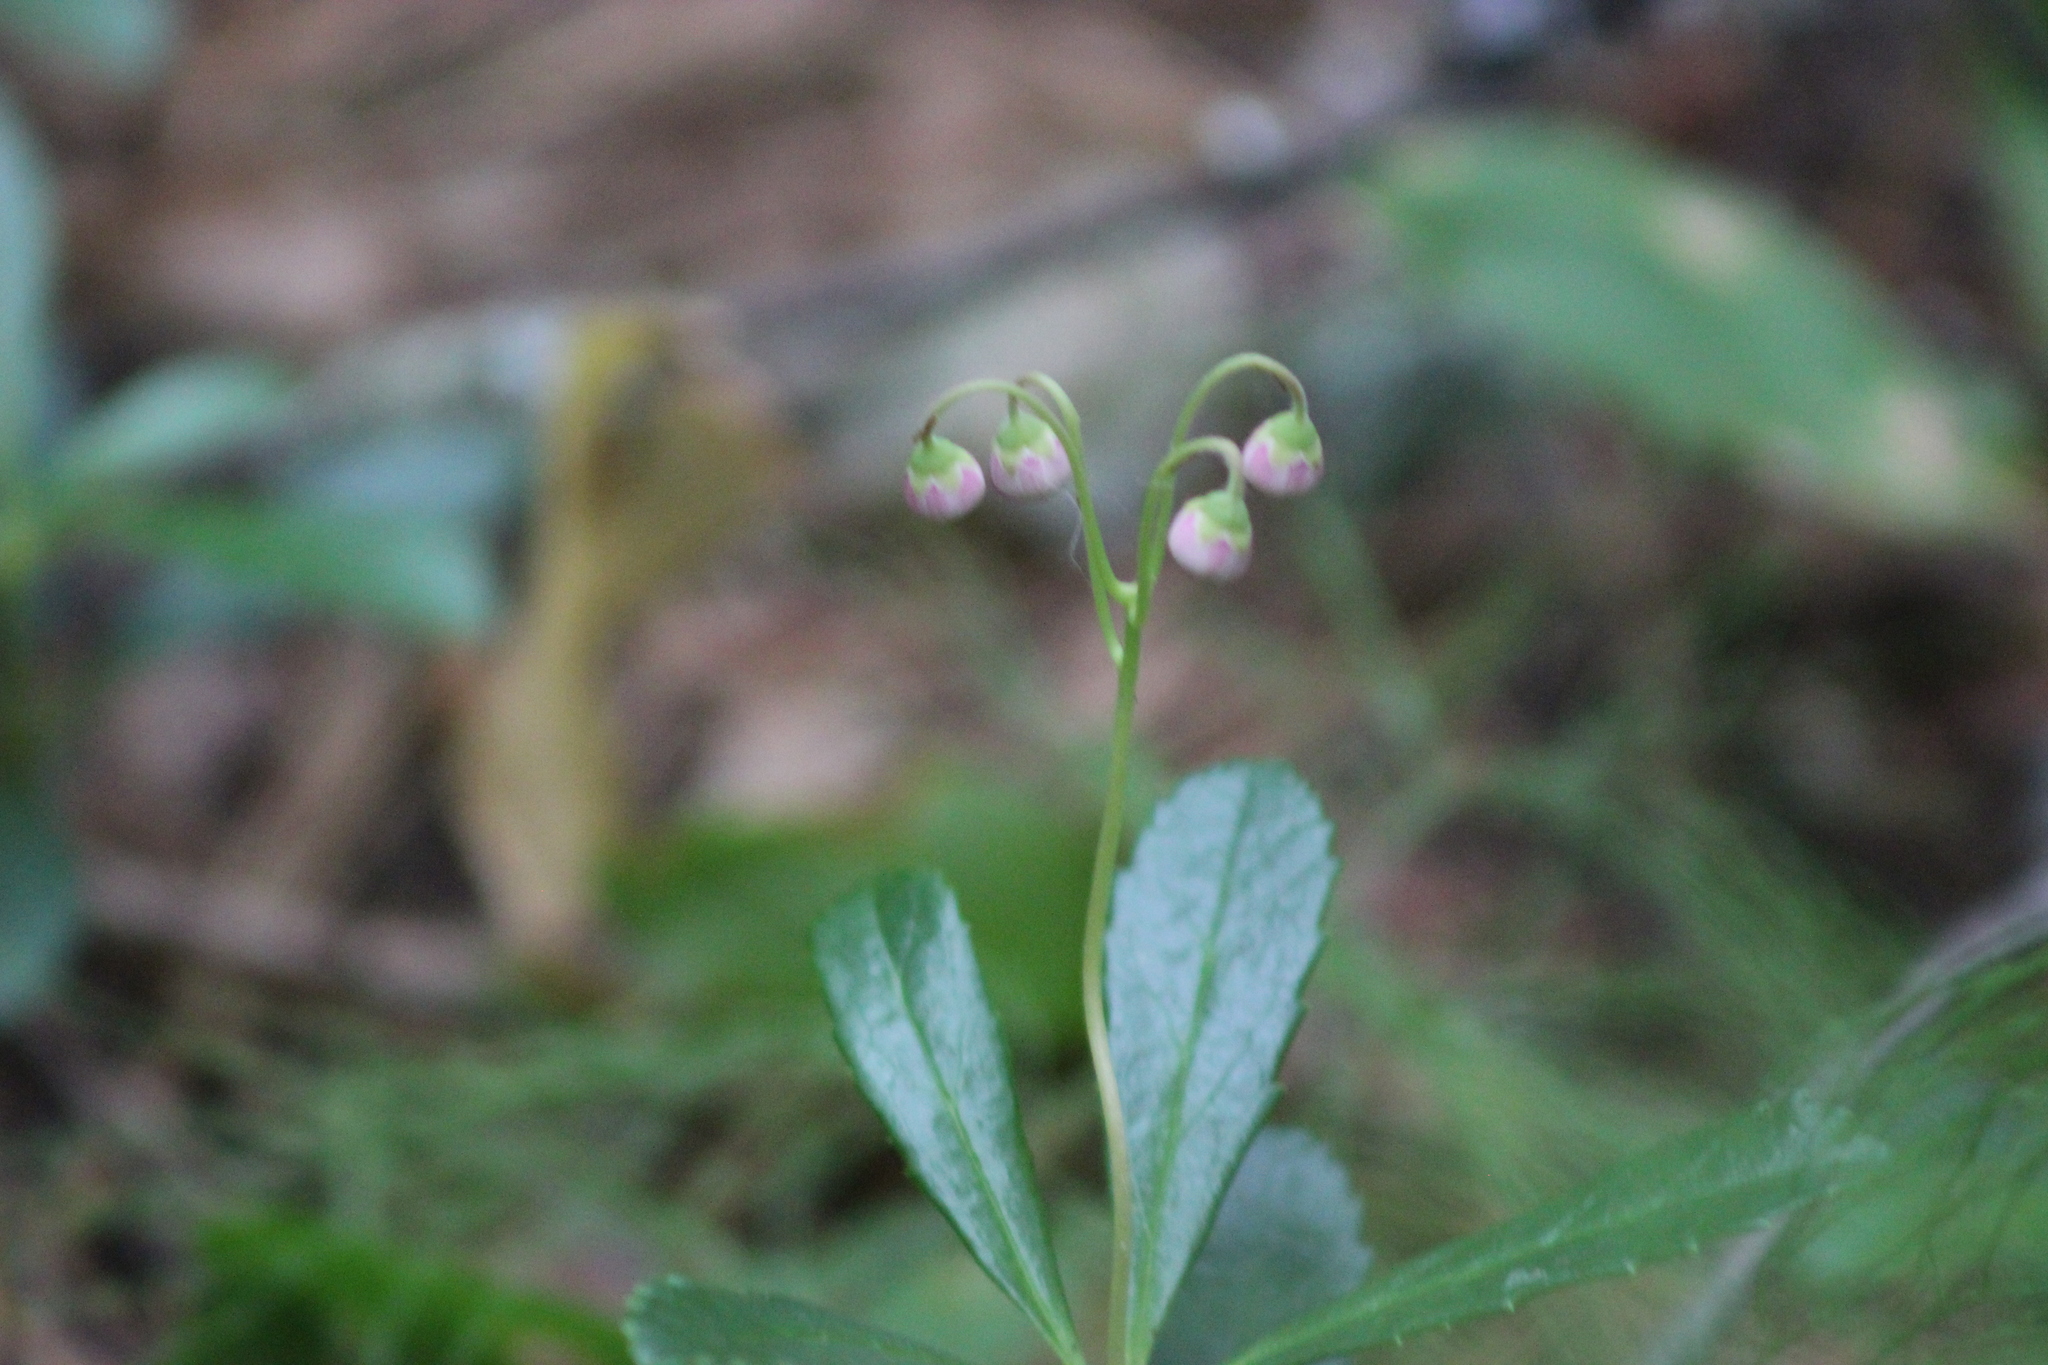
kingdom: Plantae
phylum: Tracheophyta
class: Magnoliopsida
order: Ericales
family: Ericaceae
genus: Chimaphila
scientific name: Chimaphila umbellata
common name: Pipsissewa
